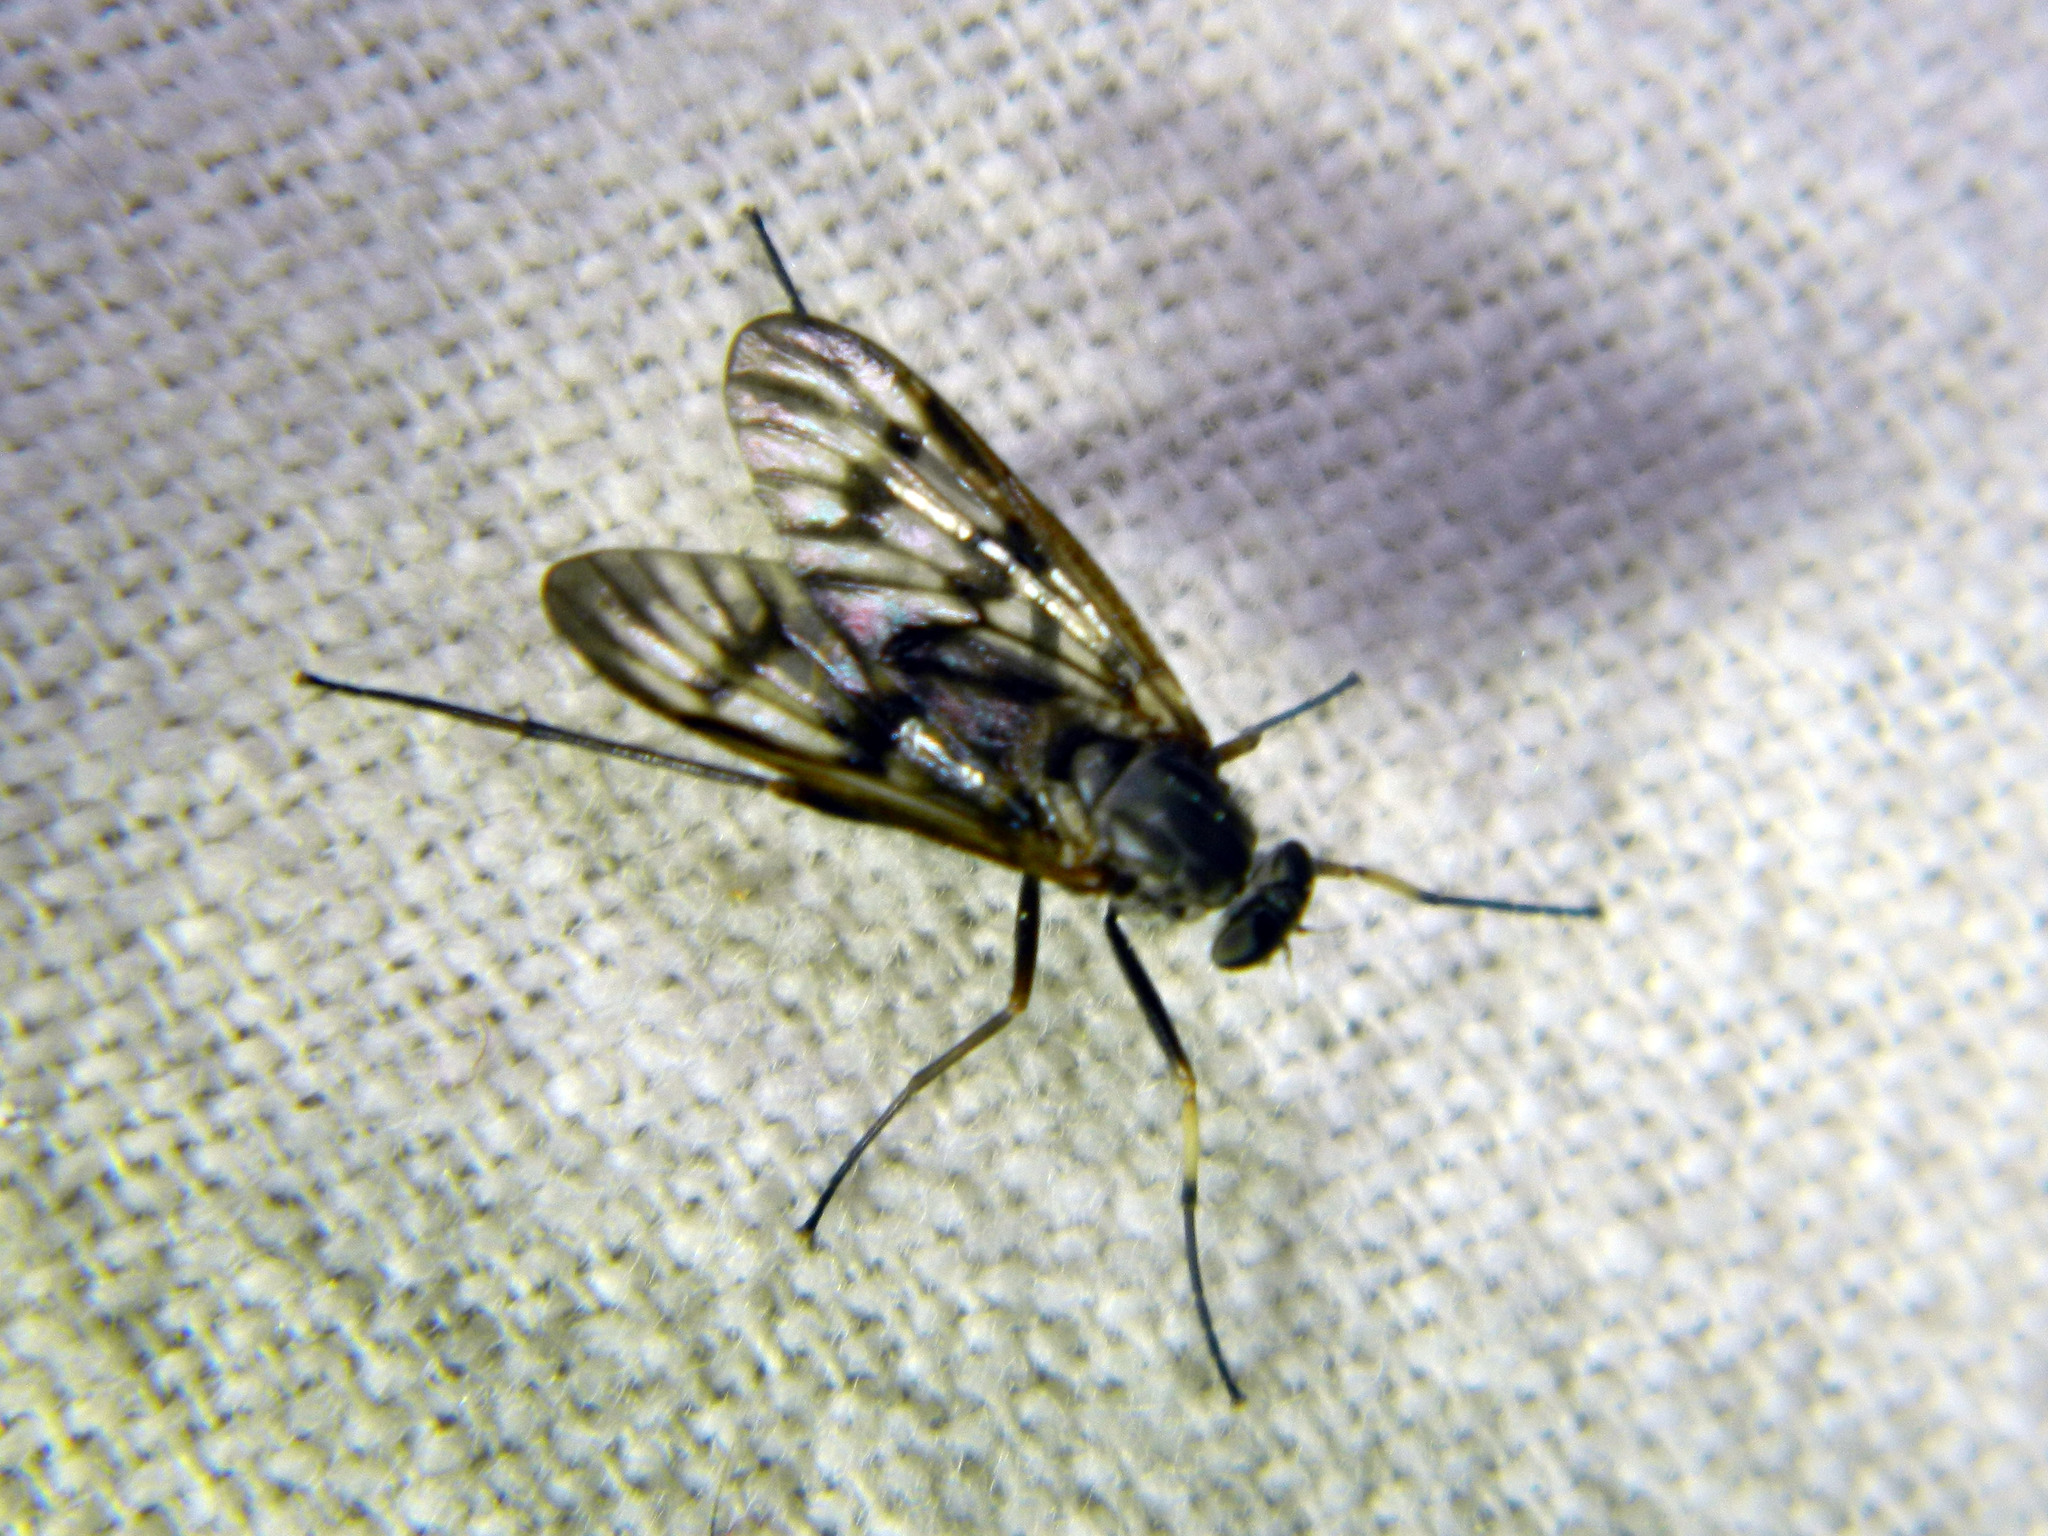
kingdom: Animalia
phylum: Arthropoda
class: Insecta
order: Diptera
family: Rhagionidae
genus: Rhagio
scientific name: Rhagio mystaceus
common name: Common snipe fly
